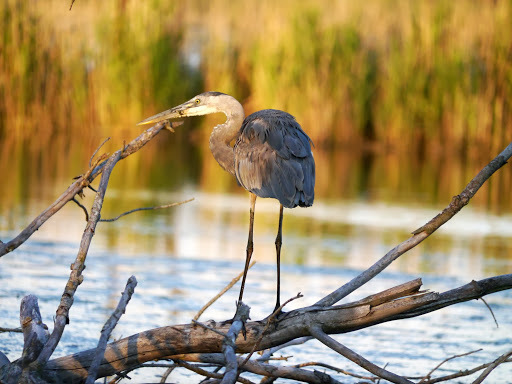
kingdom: Animalia
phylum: Chordata
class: Aves
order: Pelecaniformes
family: Ardeidae
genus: Ardea
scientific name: Ardea herodias
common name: Great blue heron
